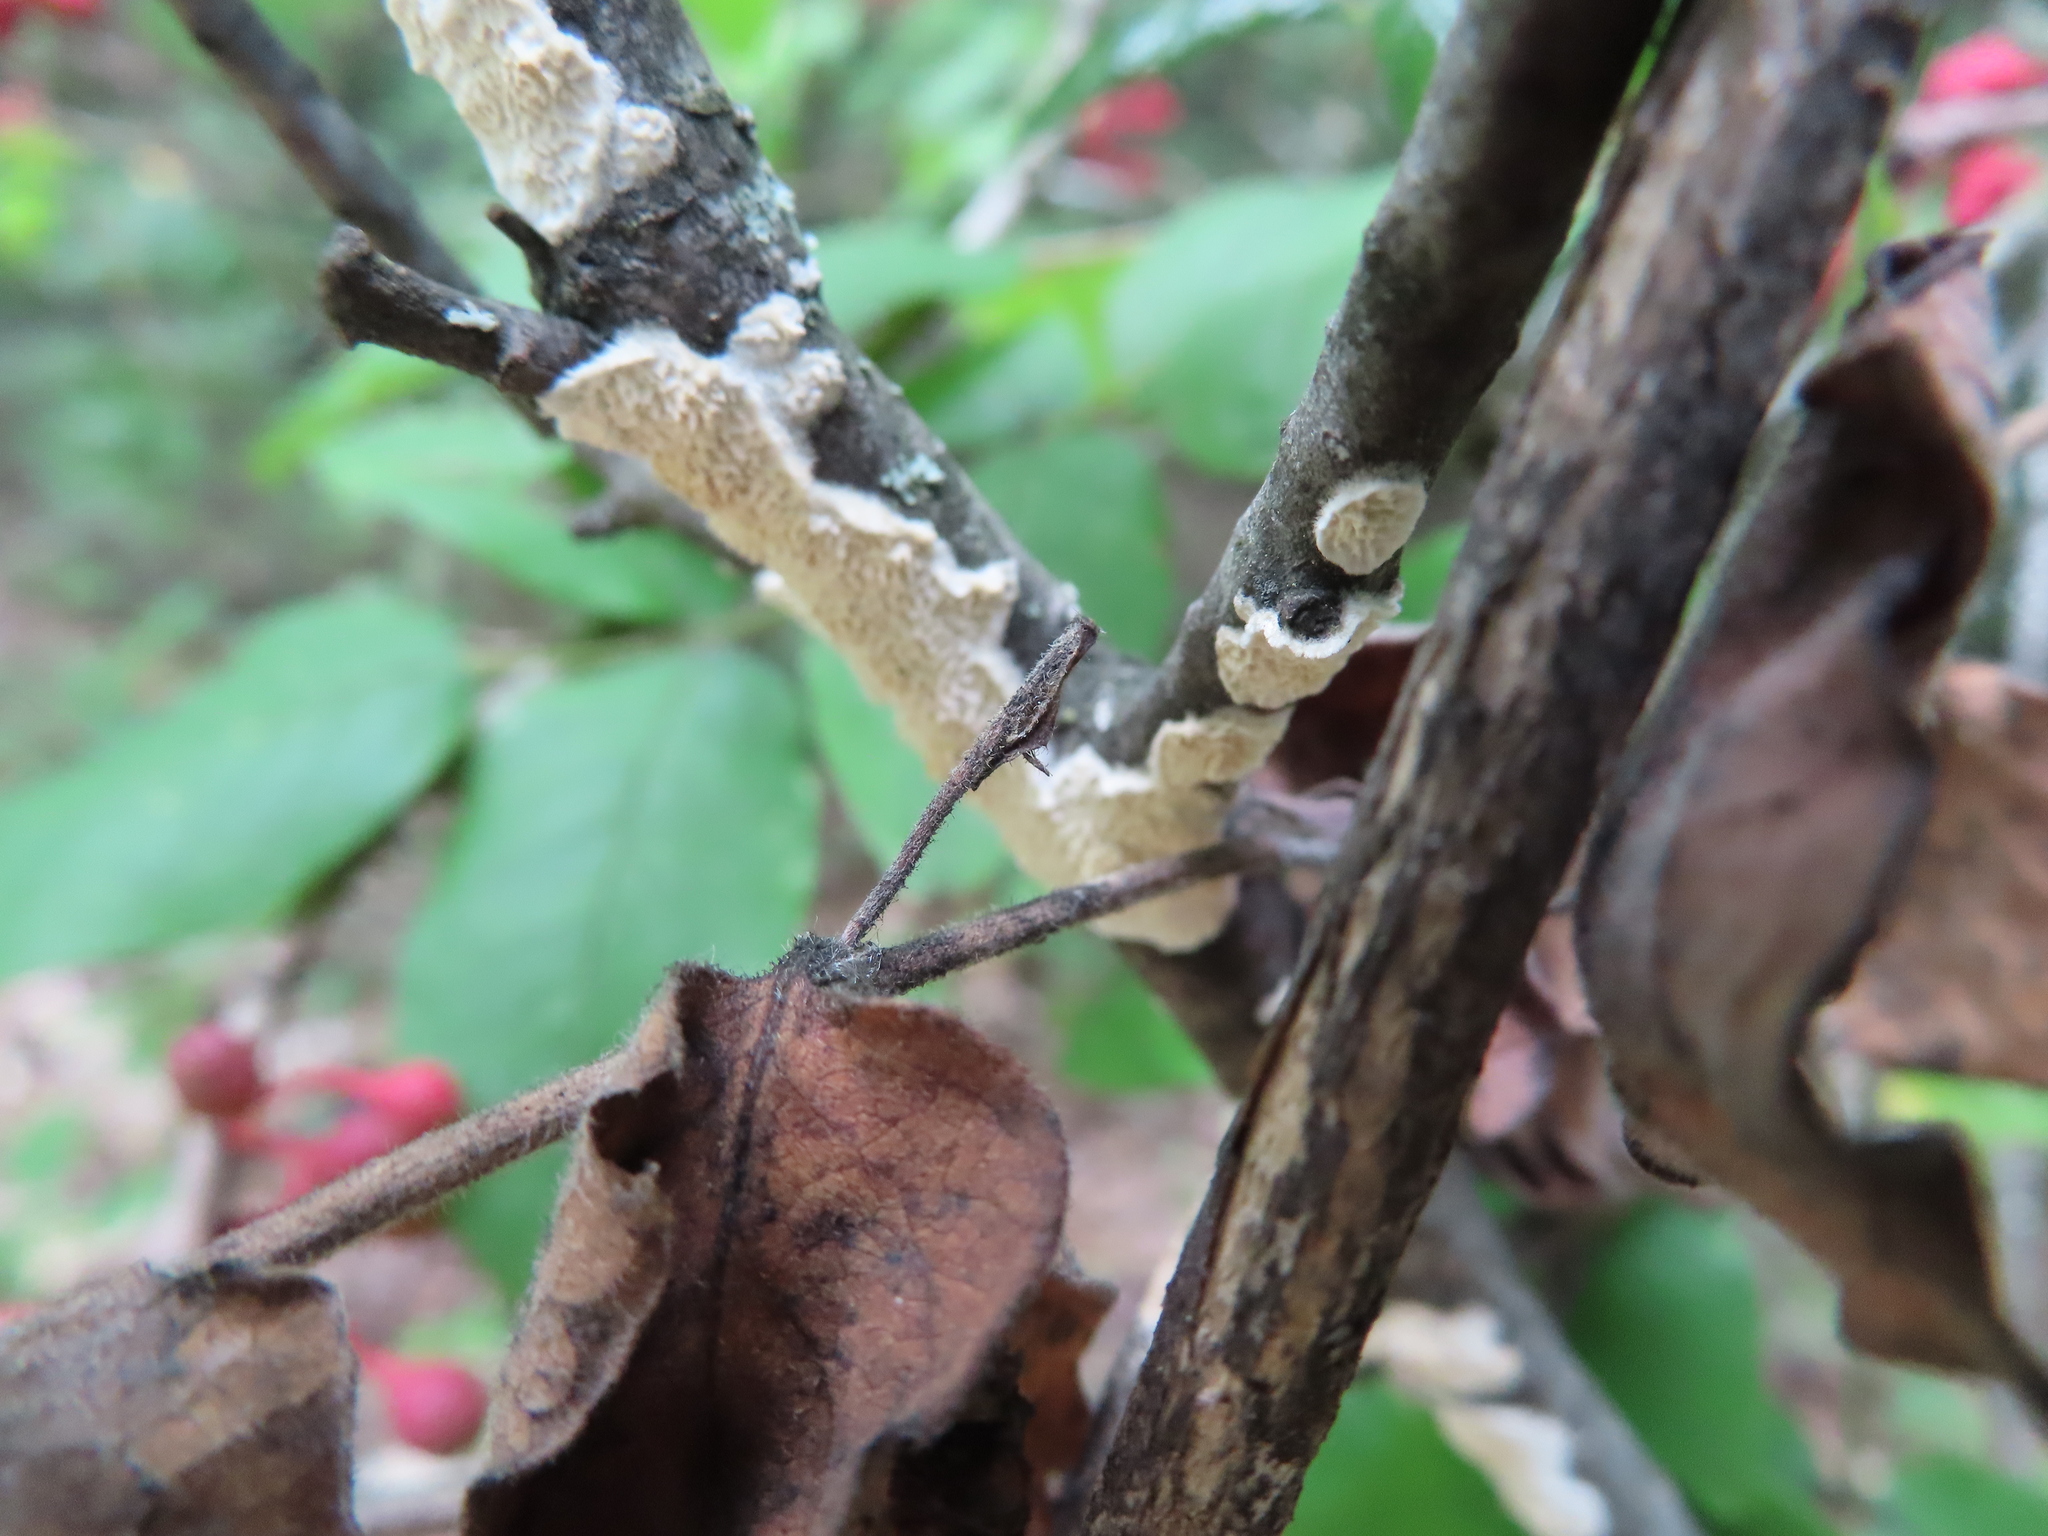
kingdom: Fungi
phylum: Basidiomycota
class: Agaricomycetes
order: Polyporales
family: Irpicaceae
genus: Irpex
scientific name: Irpex lacteus
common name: Milk-white toothed polypore
